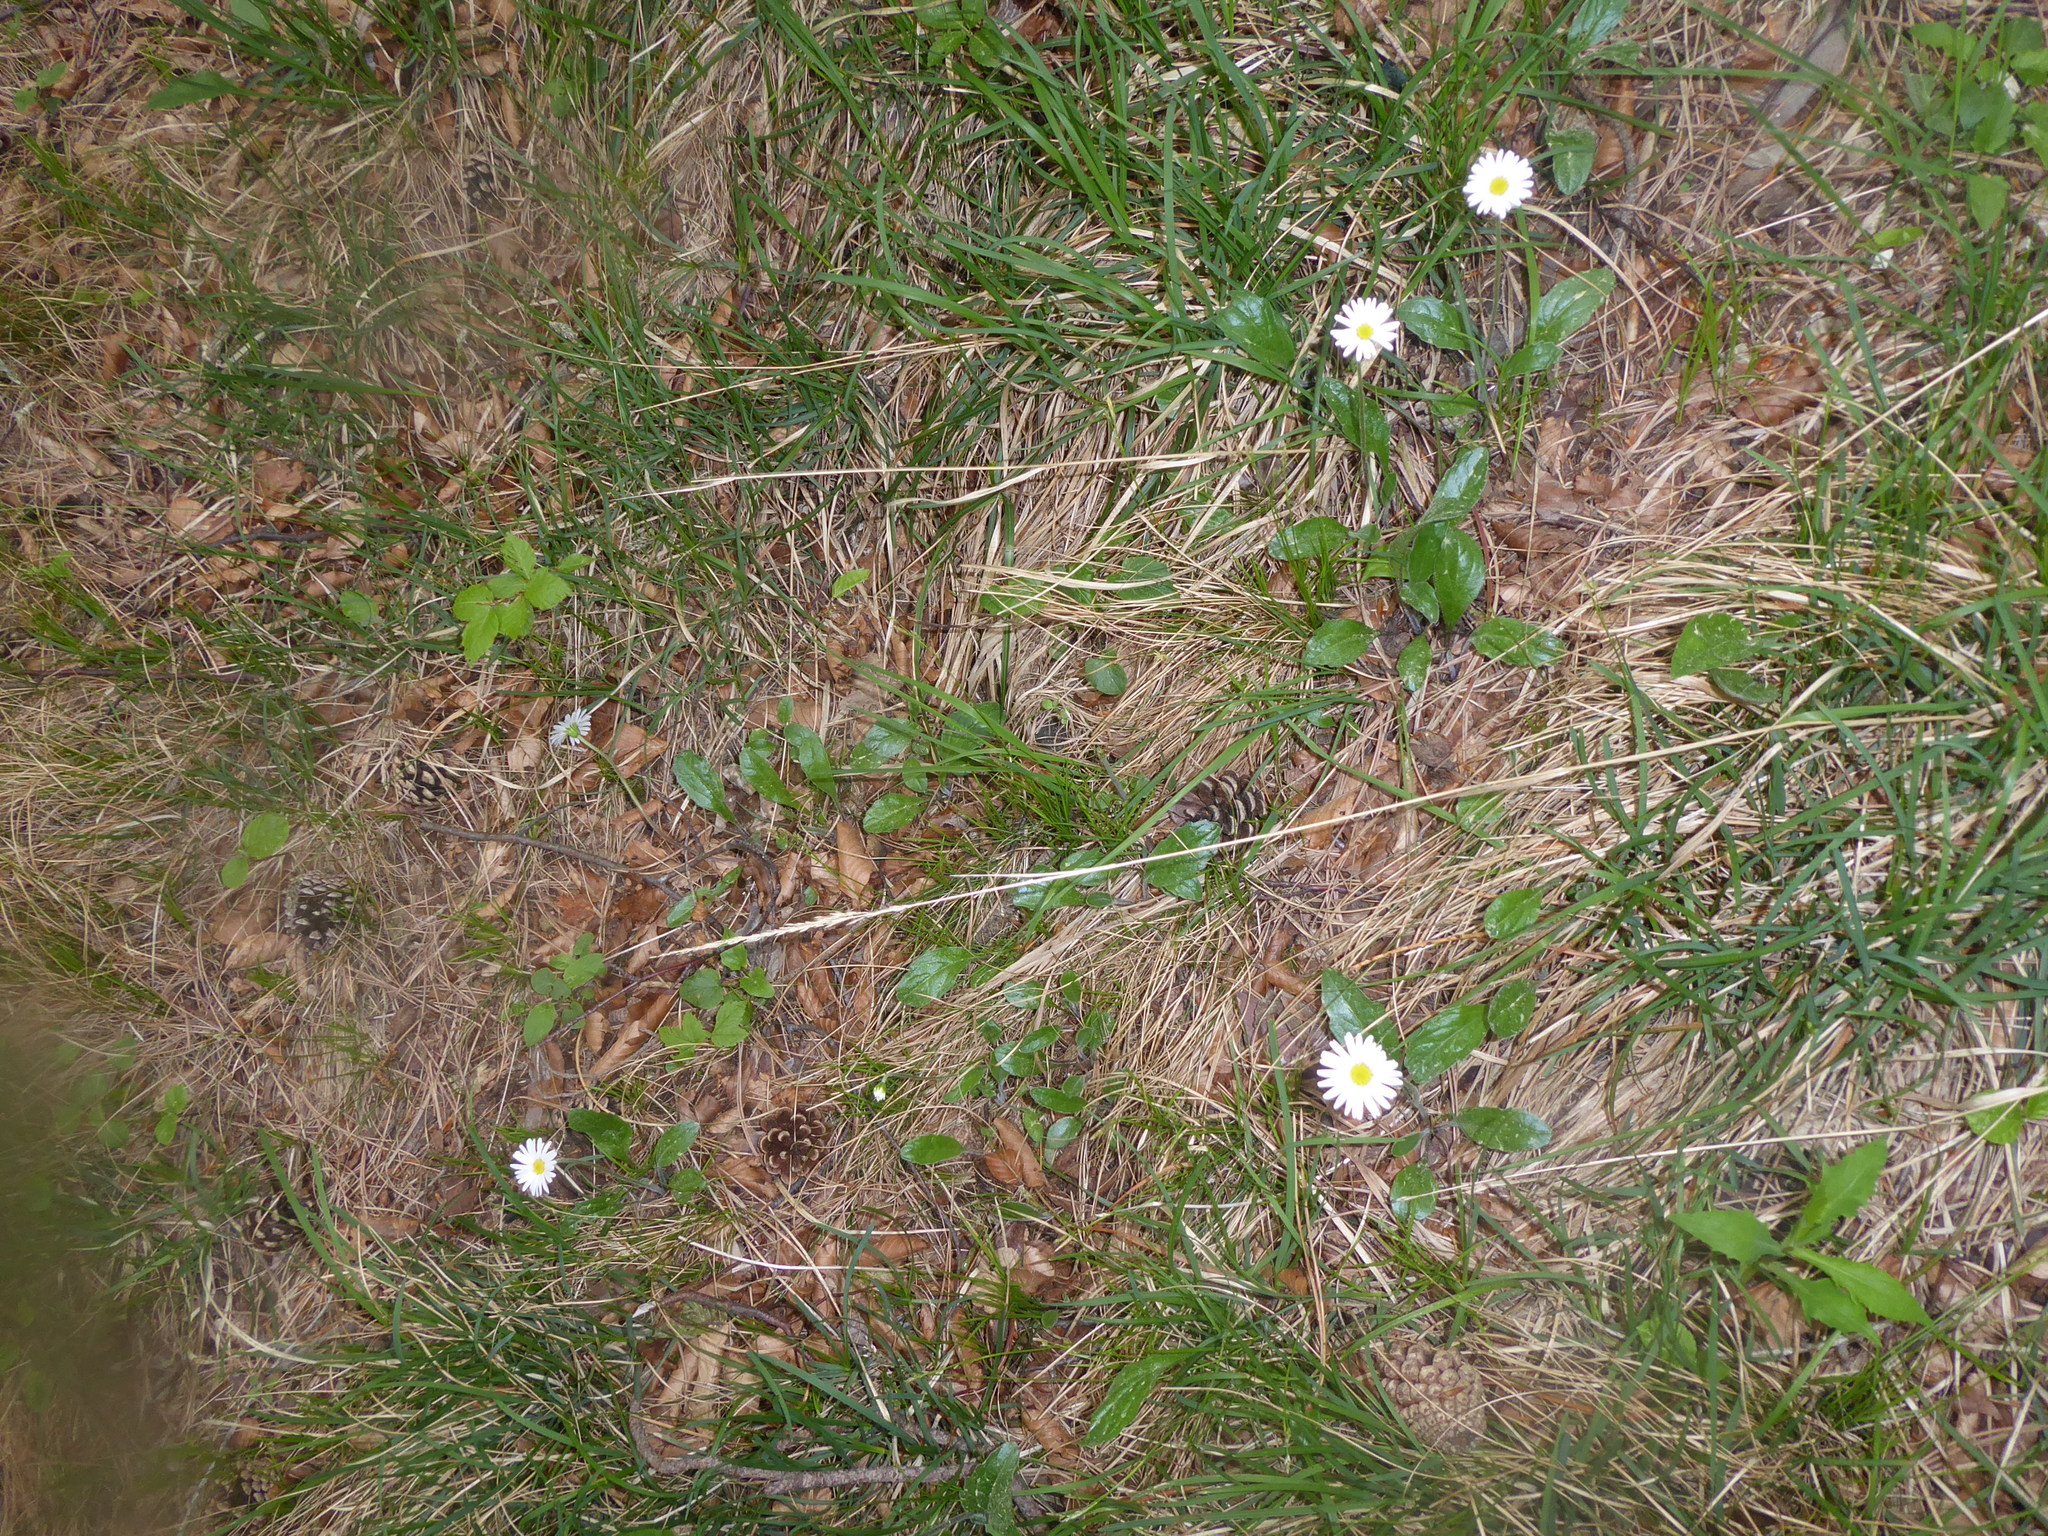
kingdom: Plantae
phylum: Tracheophyta
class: Magnoliopsida
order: Asterales
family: Asteraceae
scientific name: Asteraceae
